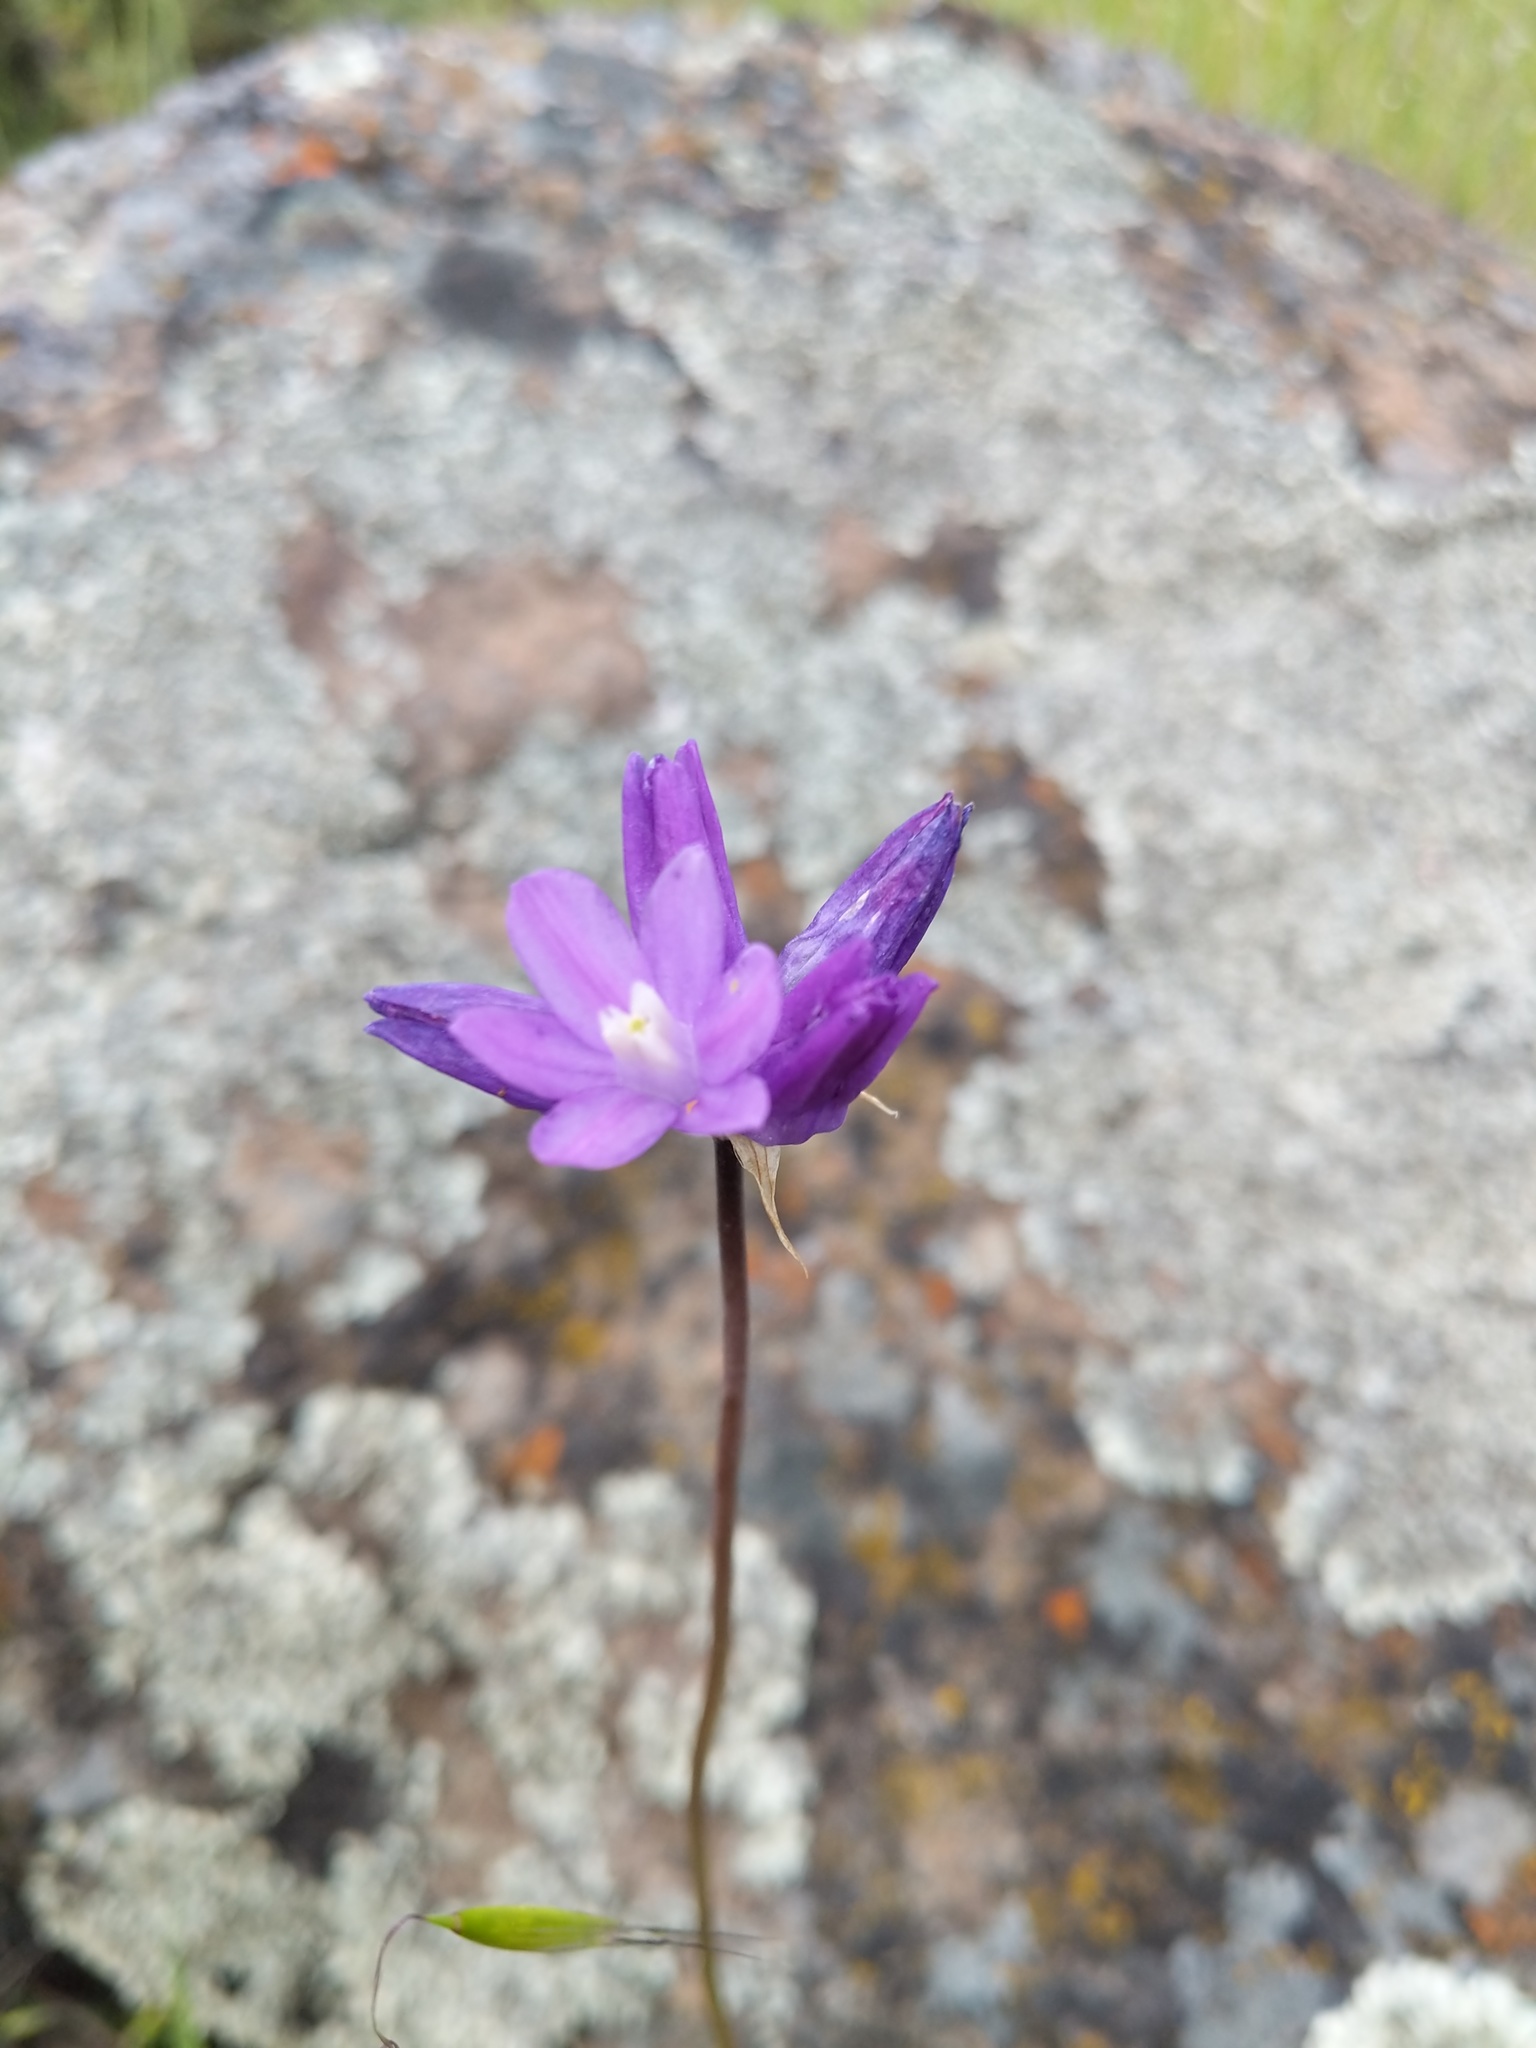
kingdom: Plantae
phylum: Tracheophyta
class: Liliopsida
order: Asparagales
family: Asparagaceae
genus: Dipterostemon
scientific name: Dipterostemon capitatus
